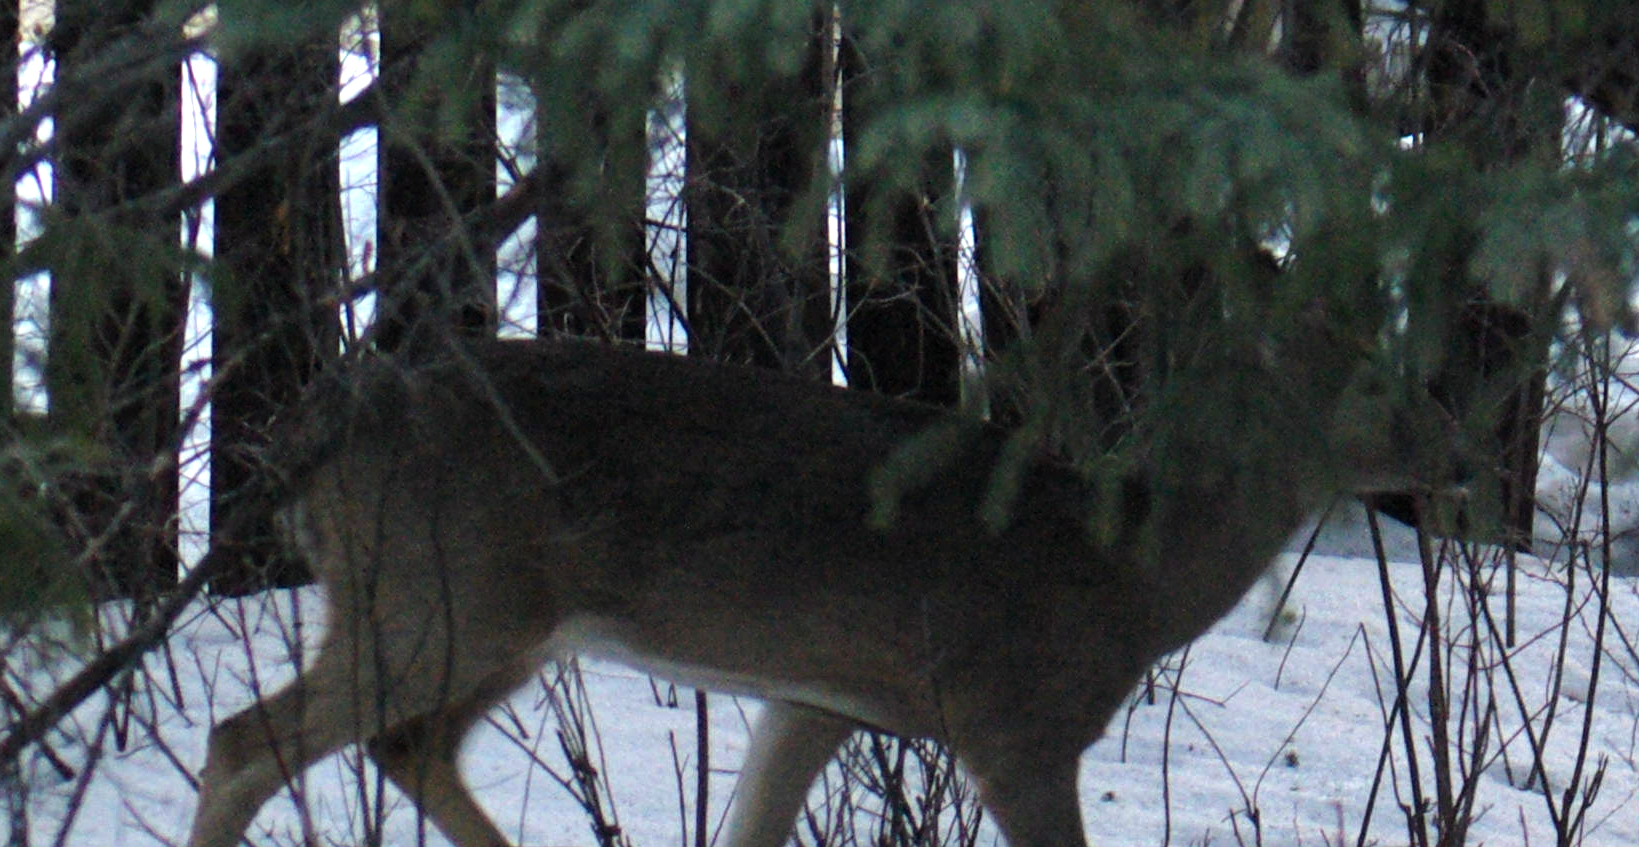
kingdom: Animalia
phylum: Chordata
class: Mammalia
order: Artiodactyla
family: Cervidae
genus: Odocoileus
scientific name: Odocoileus virginianus
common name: White-tailed deer
